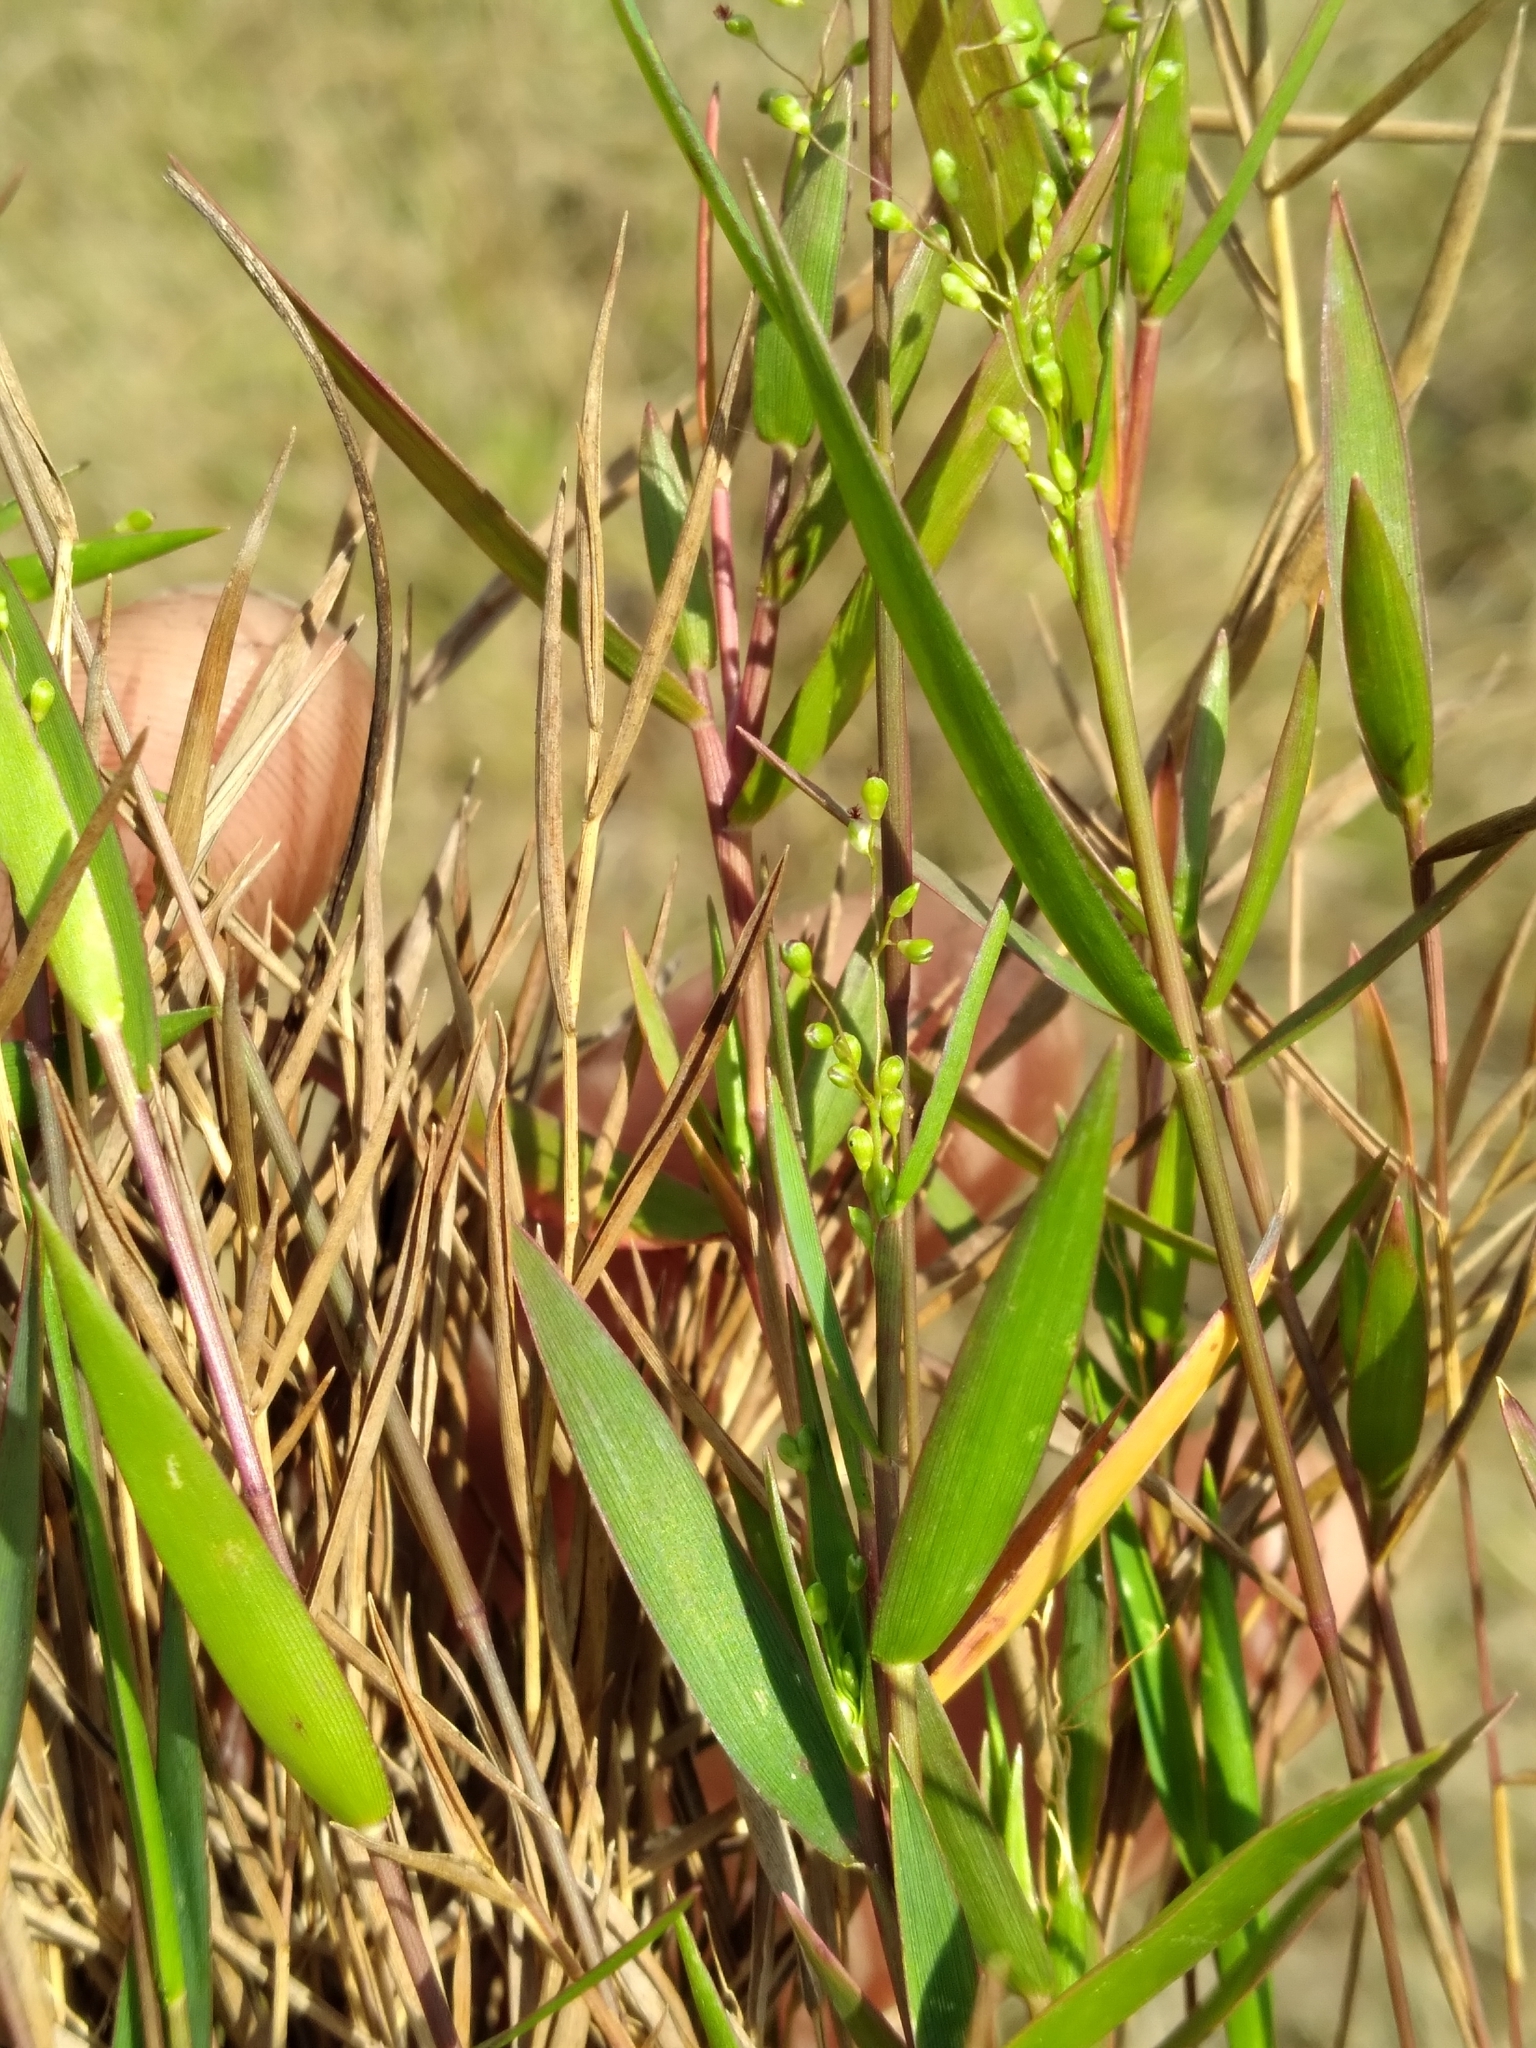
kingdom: Plantae
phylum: Tracheophyta
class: Liliopsida
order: Poales
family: Poaceae
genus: Dichanthelium
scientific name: Dichanthelium portoricense
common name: American panicgrass
